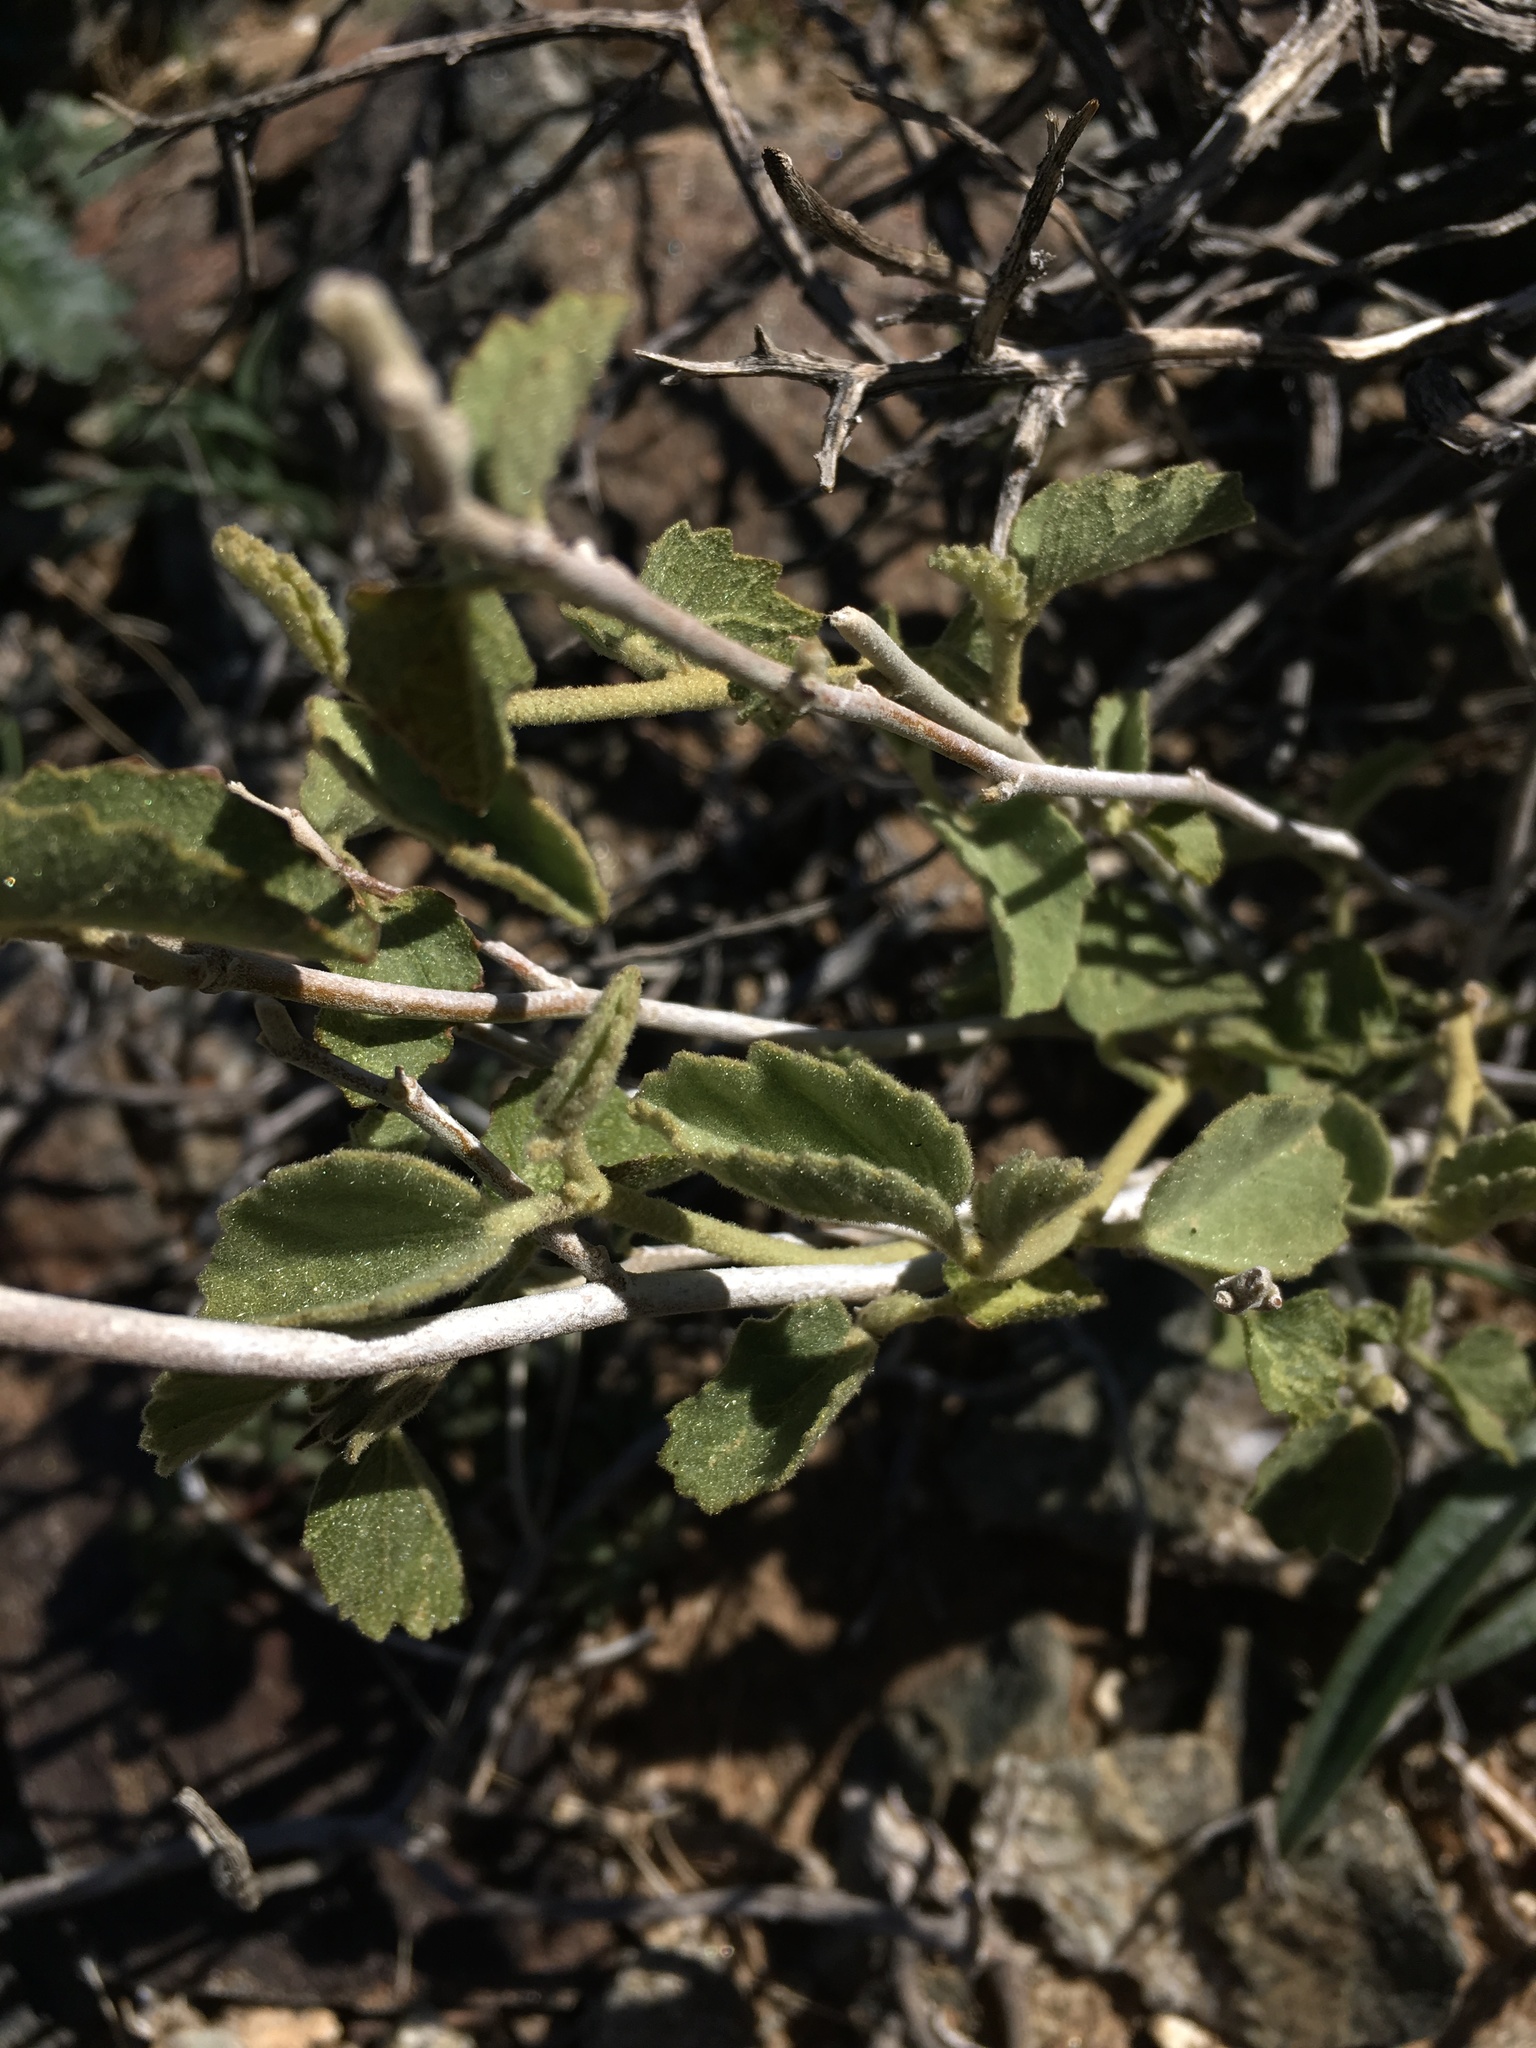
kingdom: Plantae
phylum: Tracheophyta
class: Magnoliopsida
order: Malvales
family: Malvaceae
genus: Hibiscus
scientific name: Hibiscus denudatus
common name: Paleface
